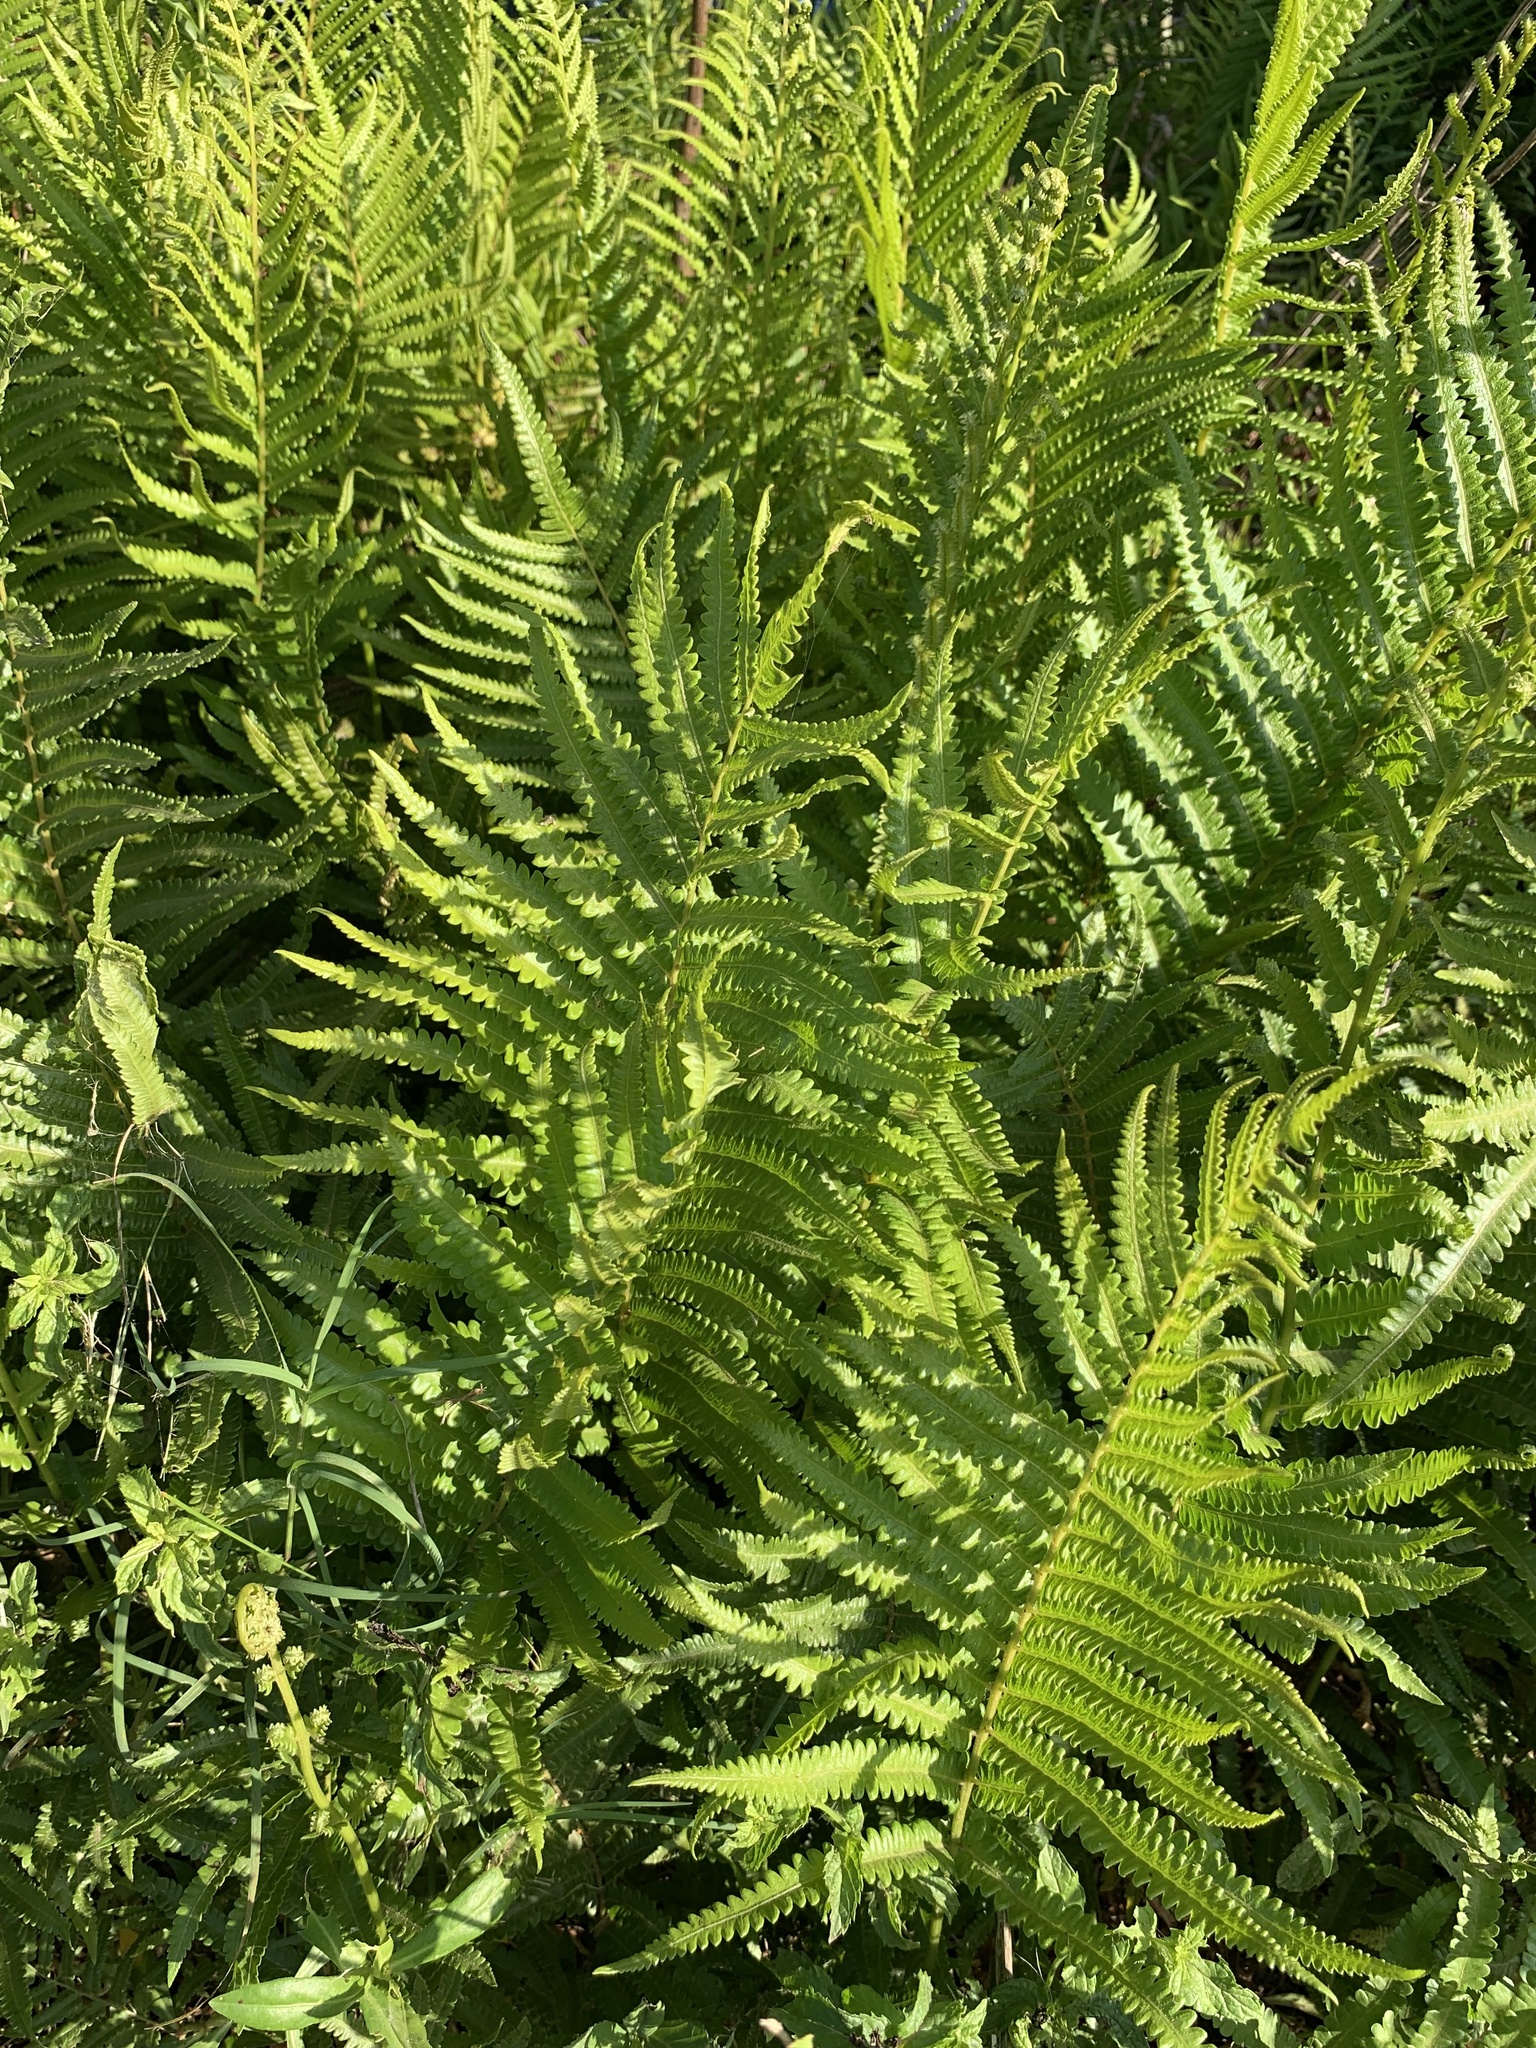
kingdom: Plantae
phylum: Tracheophyta
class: Polypodiopsida
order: Polypodiales
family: Thelypteridaceae
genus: Cyclosorus
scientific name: Cyclosorus interruptus
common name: Neke fern
